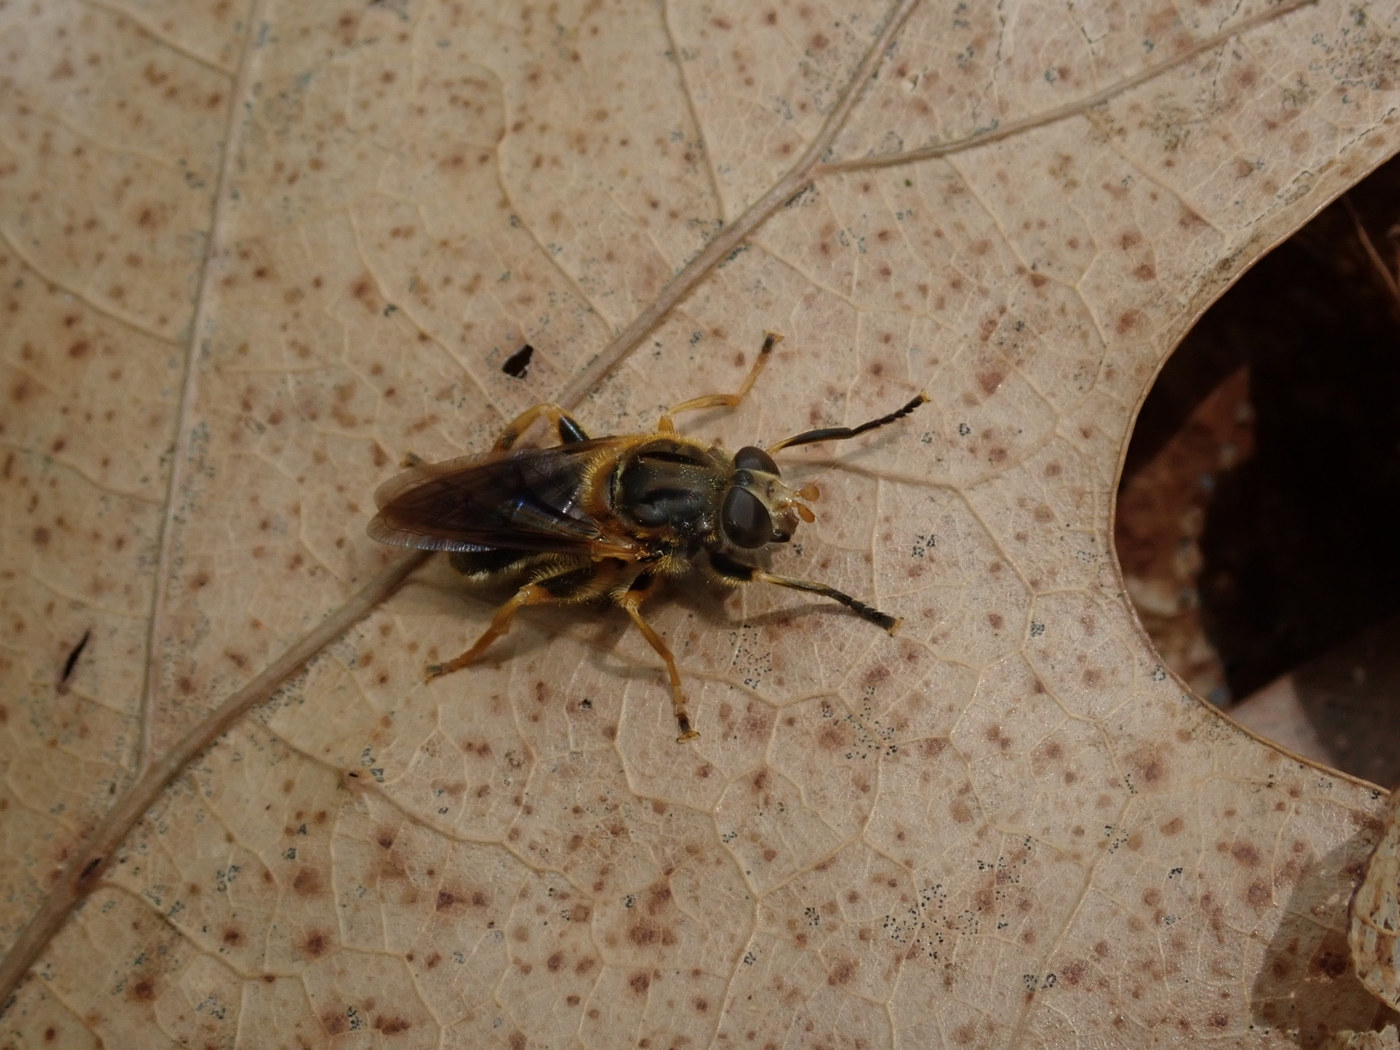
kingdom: Animalia
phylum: Arthropoda
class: Insecta
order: Diptera
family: Syrphidae
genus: Teuchocnemis
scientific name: Teuchocnemis lituratus
